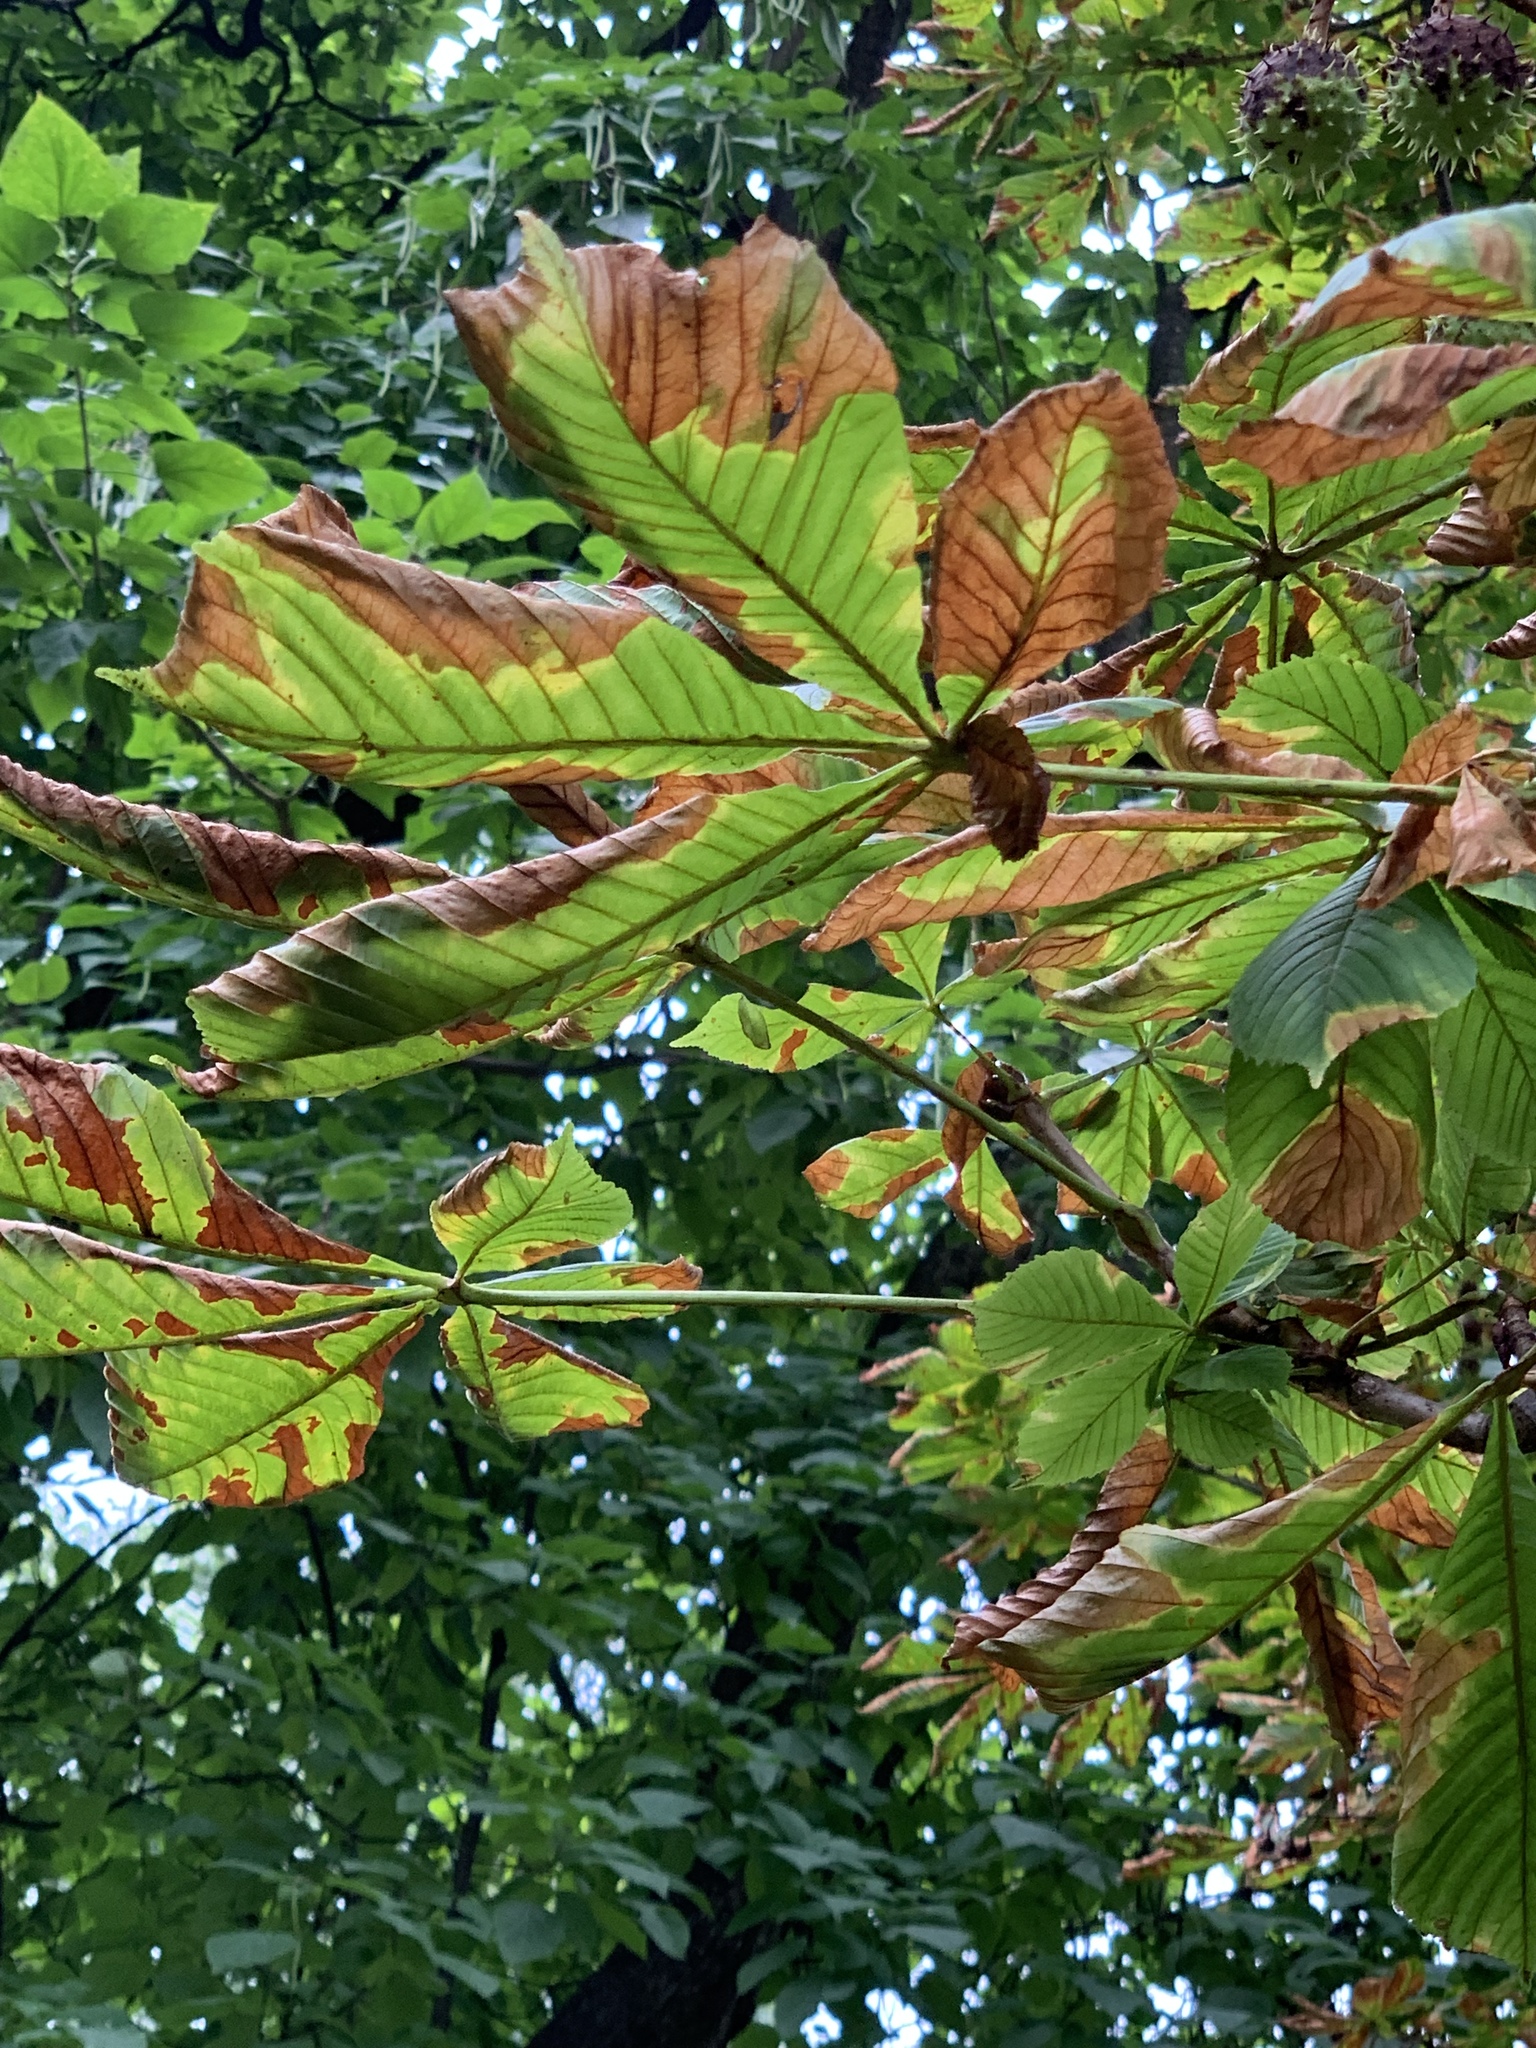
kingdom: Plantae
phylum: Tracheophyta
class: Magnoliopsida
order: Sapindales
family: Sapindaceae
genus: Aesculus
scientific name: Aesculus hippocastanum
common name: Horse-chestnut
